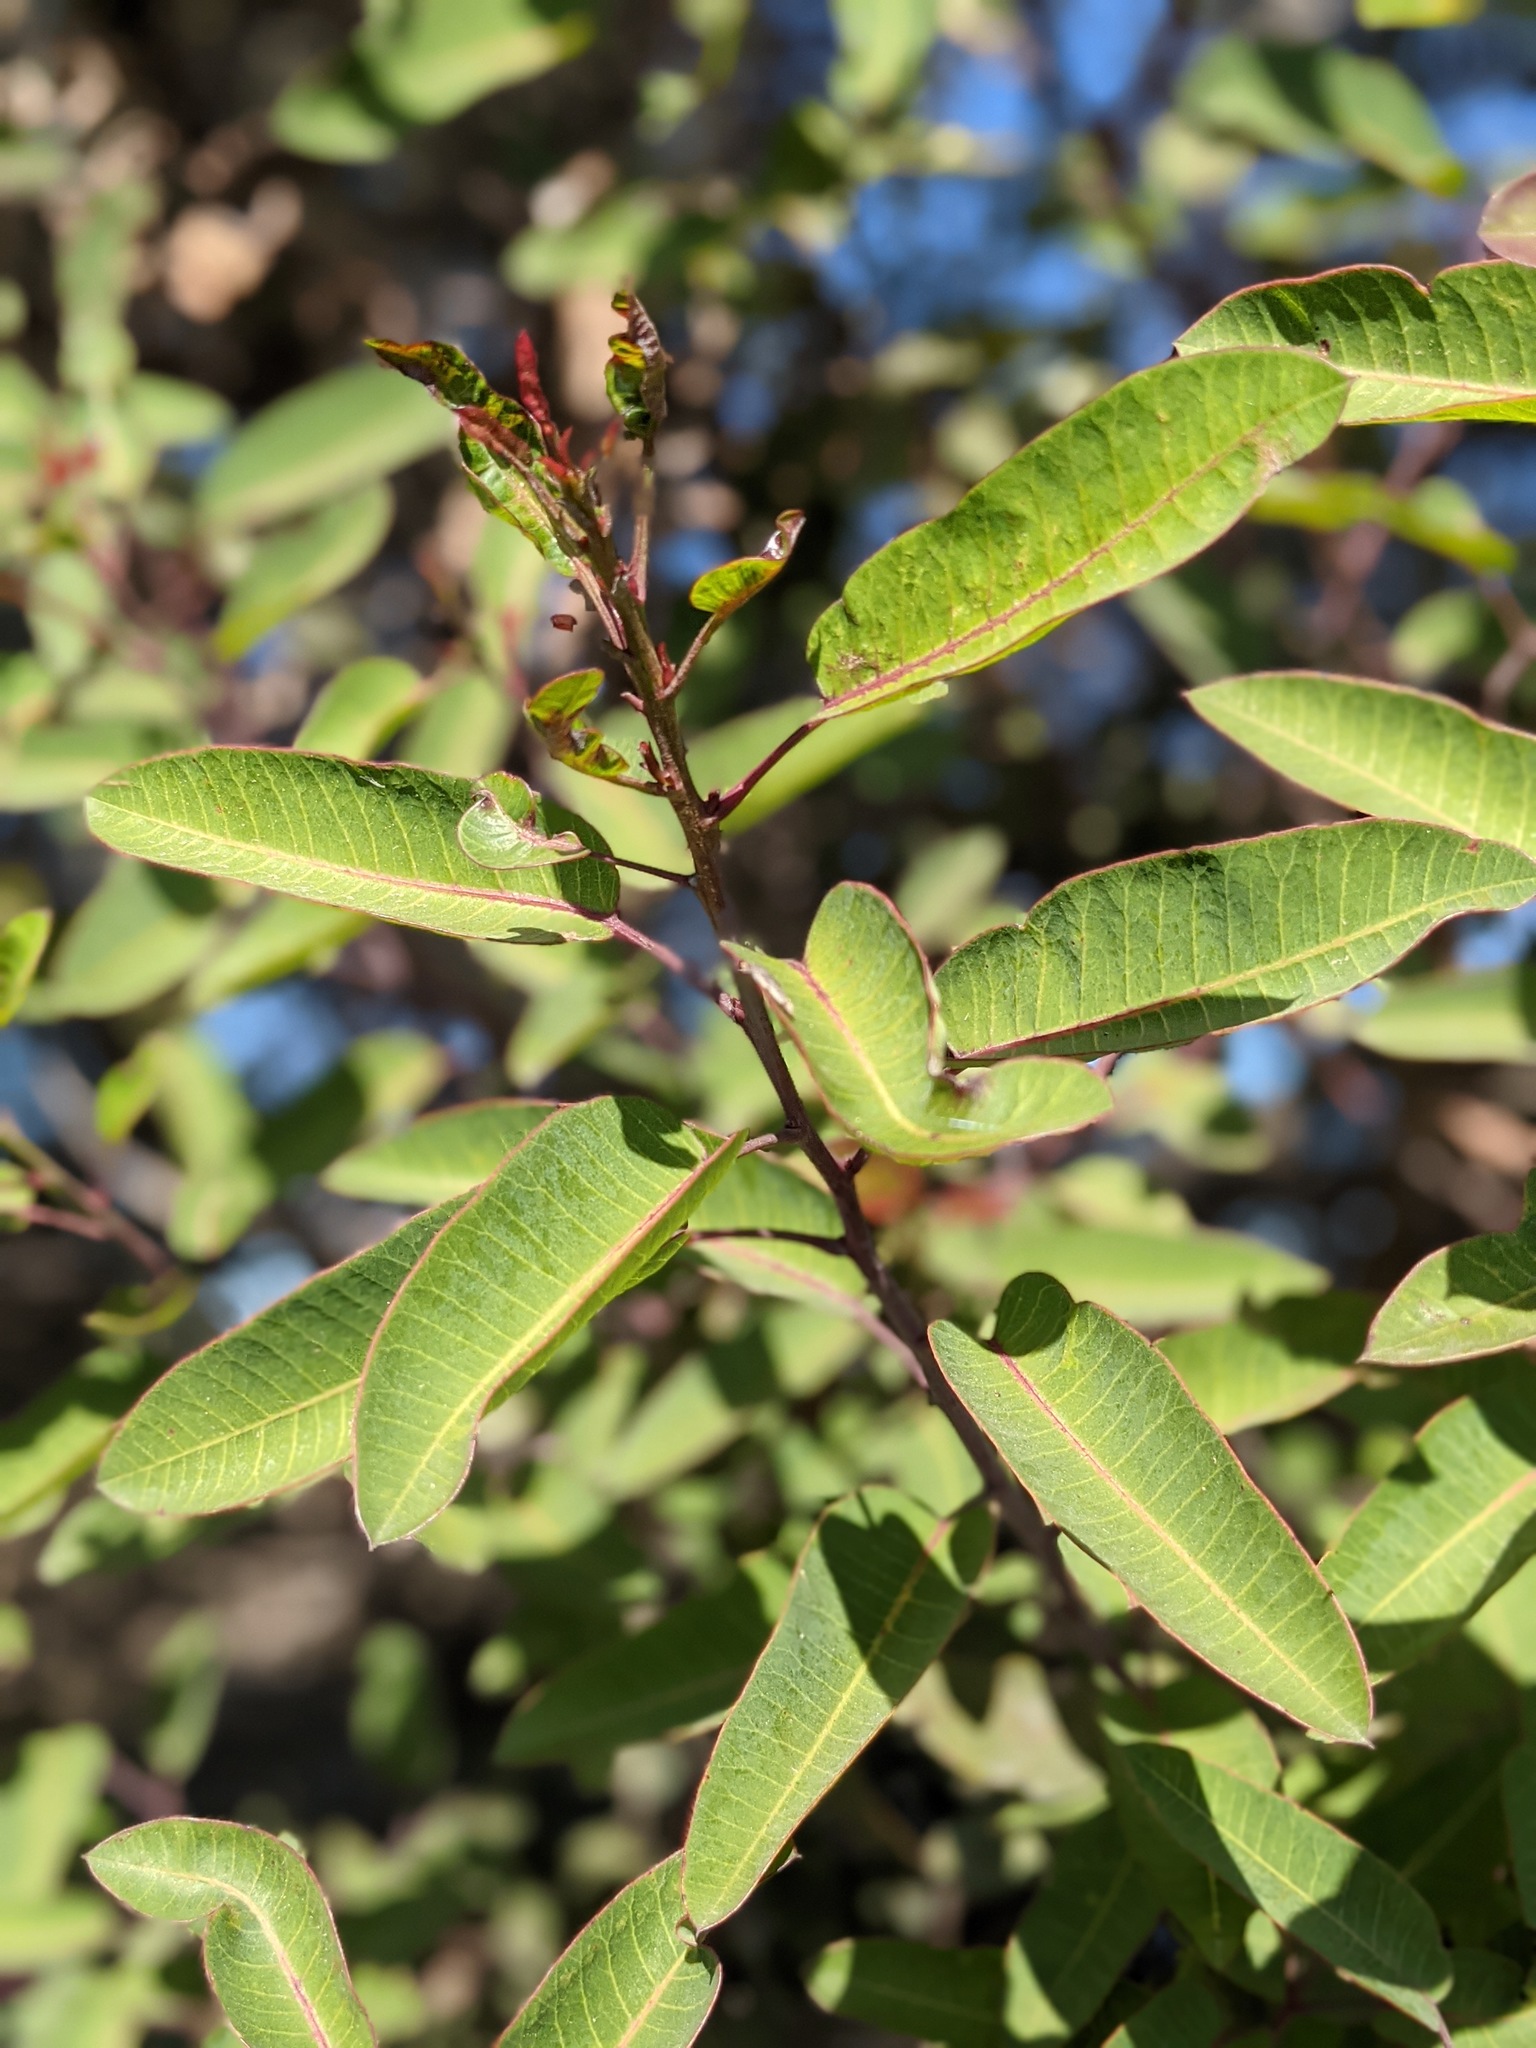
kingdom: Plantae
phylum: Tracheophyta
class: Magnoliopsida
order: Sapindales
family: Anacardiaceae
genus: Malosma
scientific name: Malosma laurina
